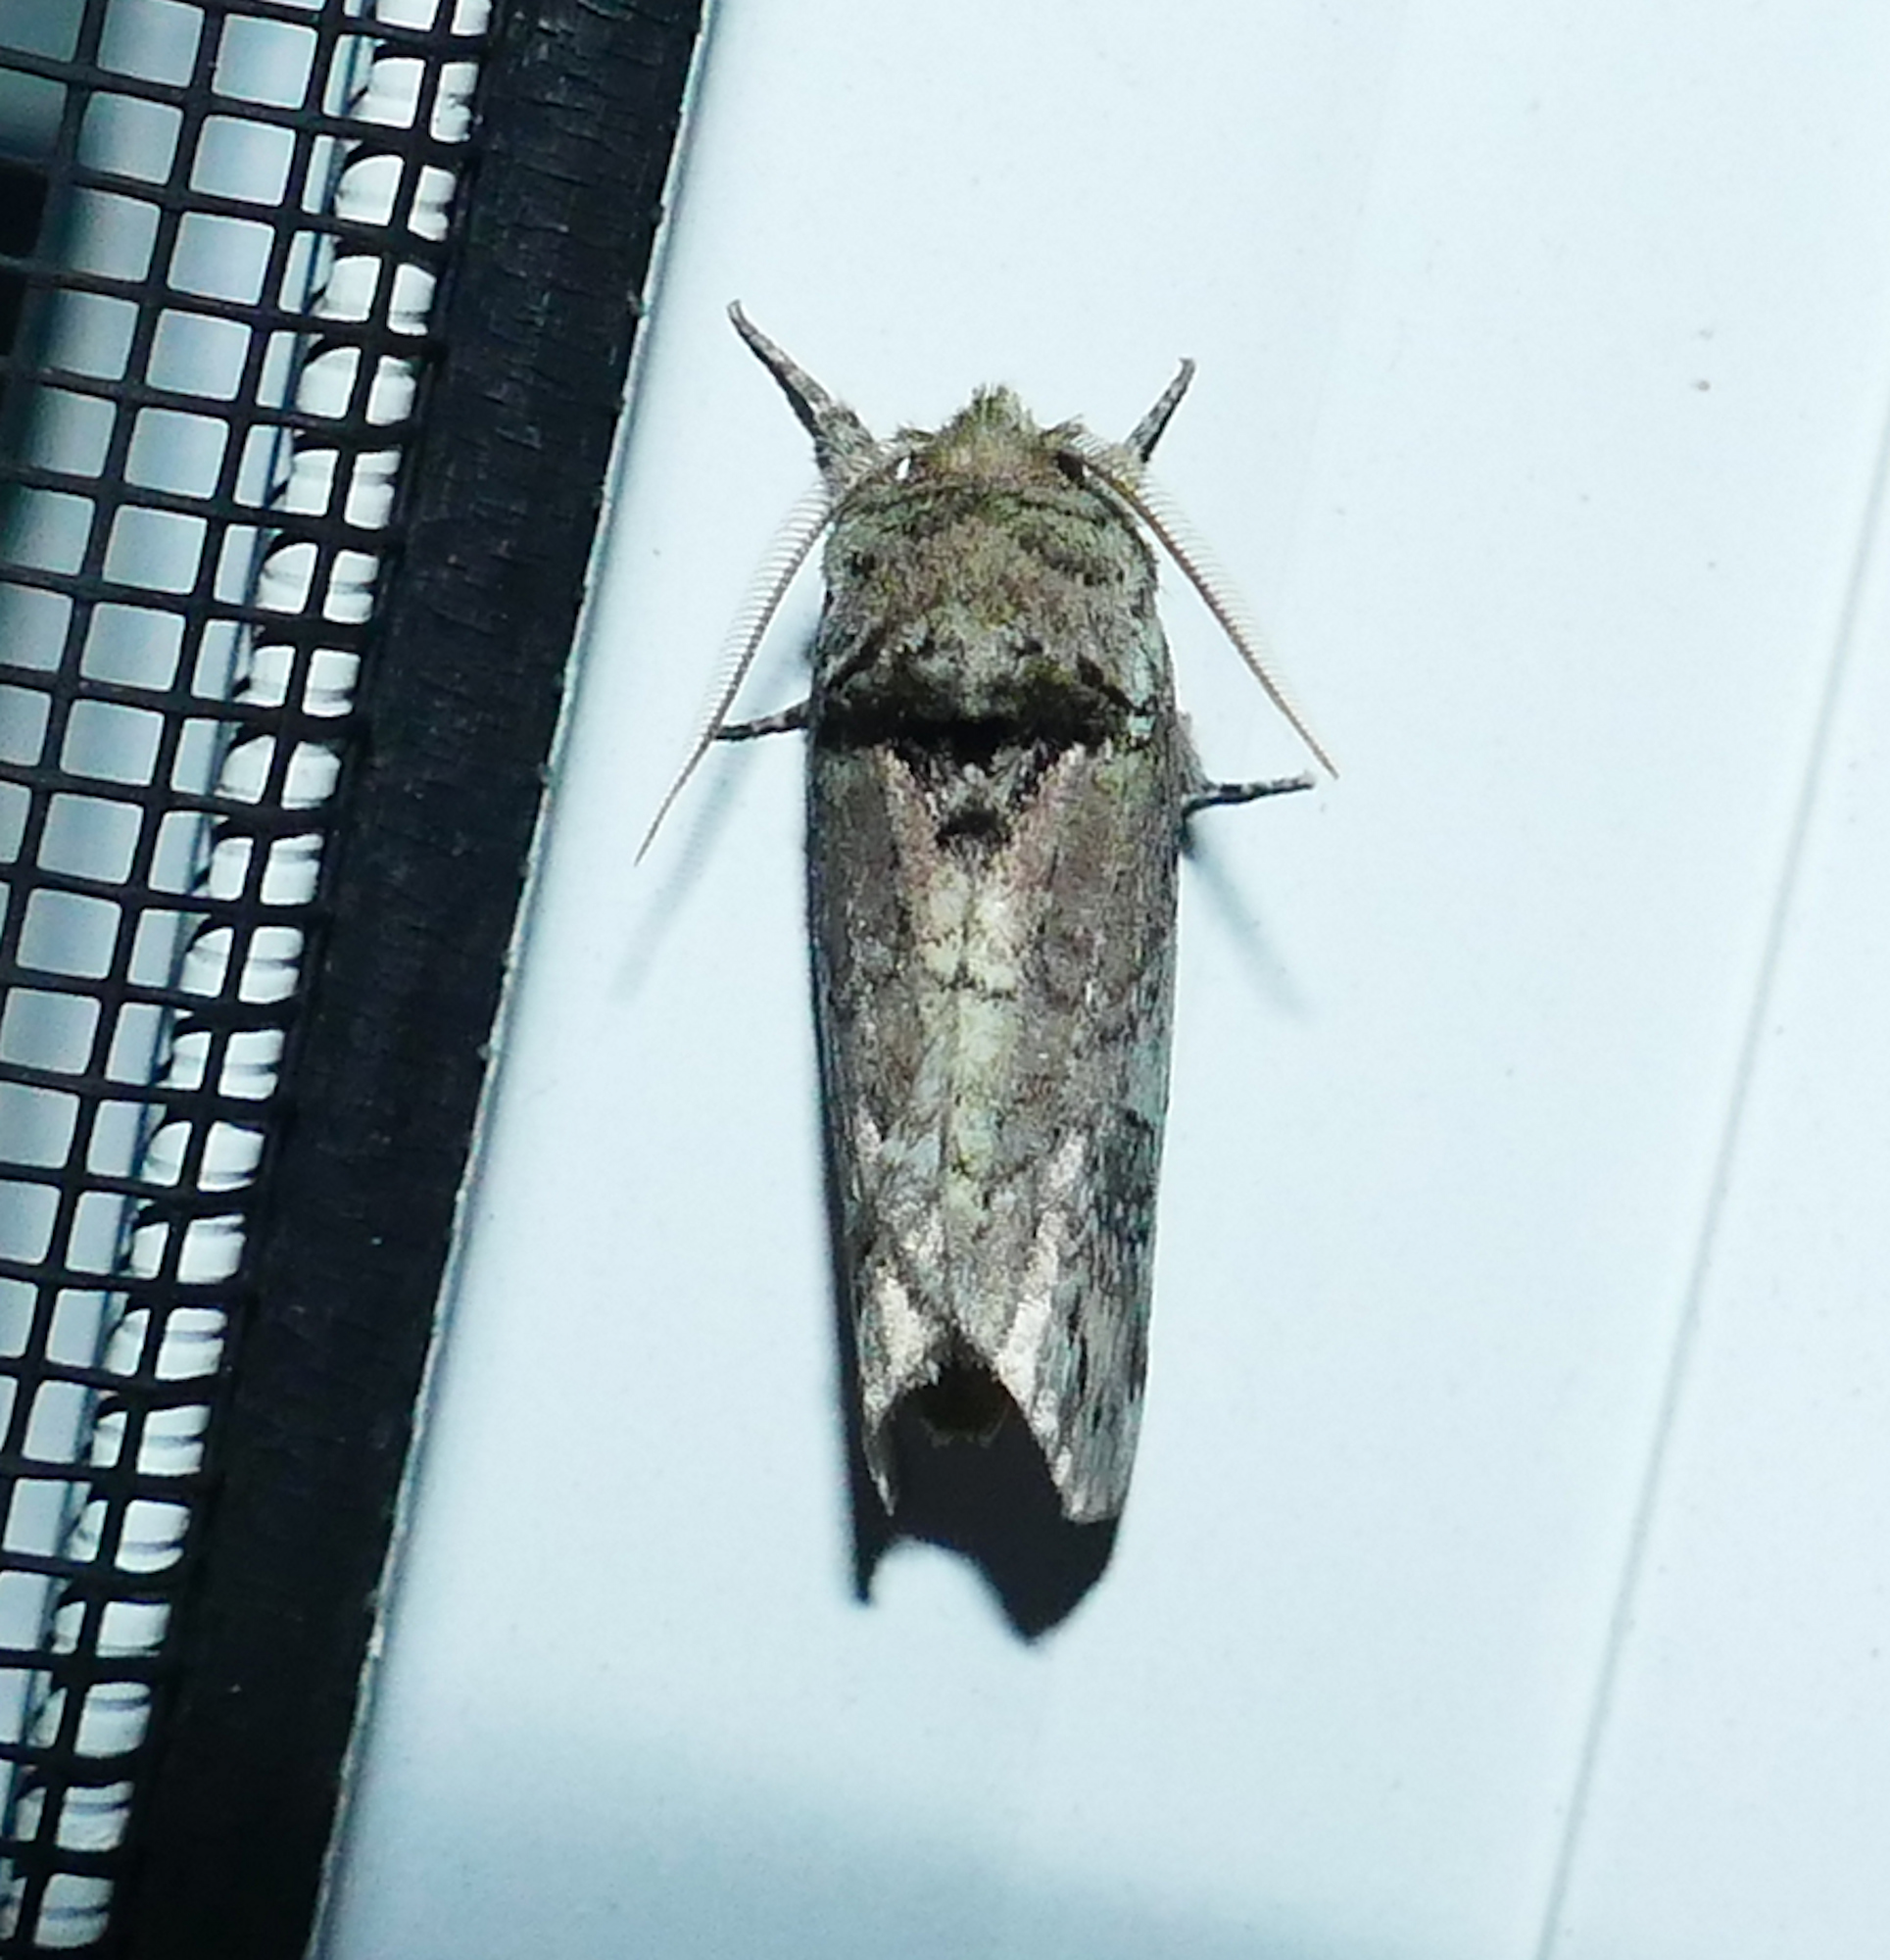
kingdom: Animalia
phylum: Arthropoda
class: Insecta
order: Lepidoptera
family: Notodontidae
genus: Schizura
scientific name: Schizura
